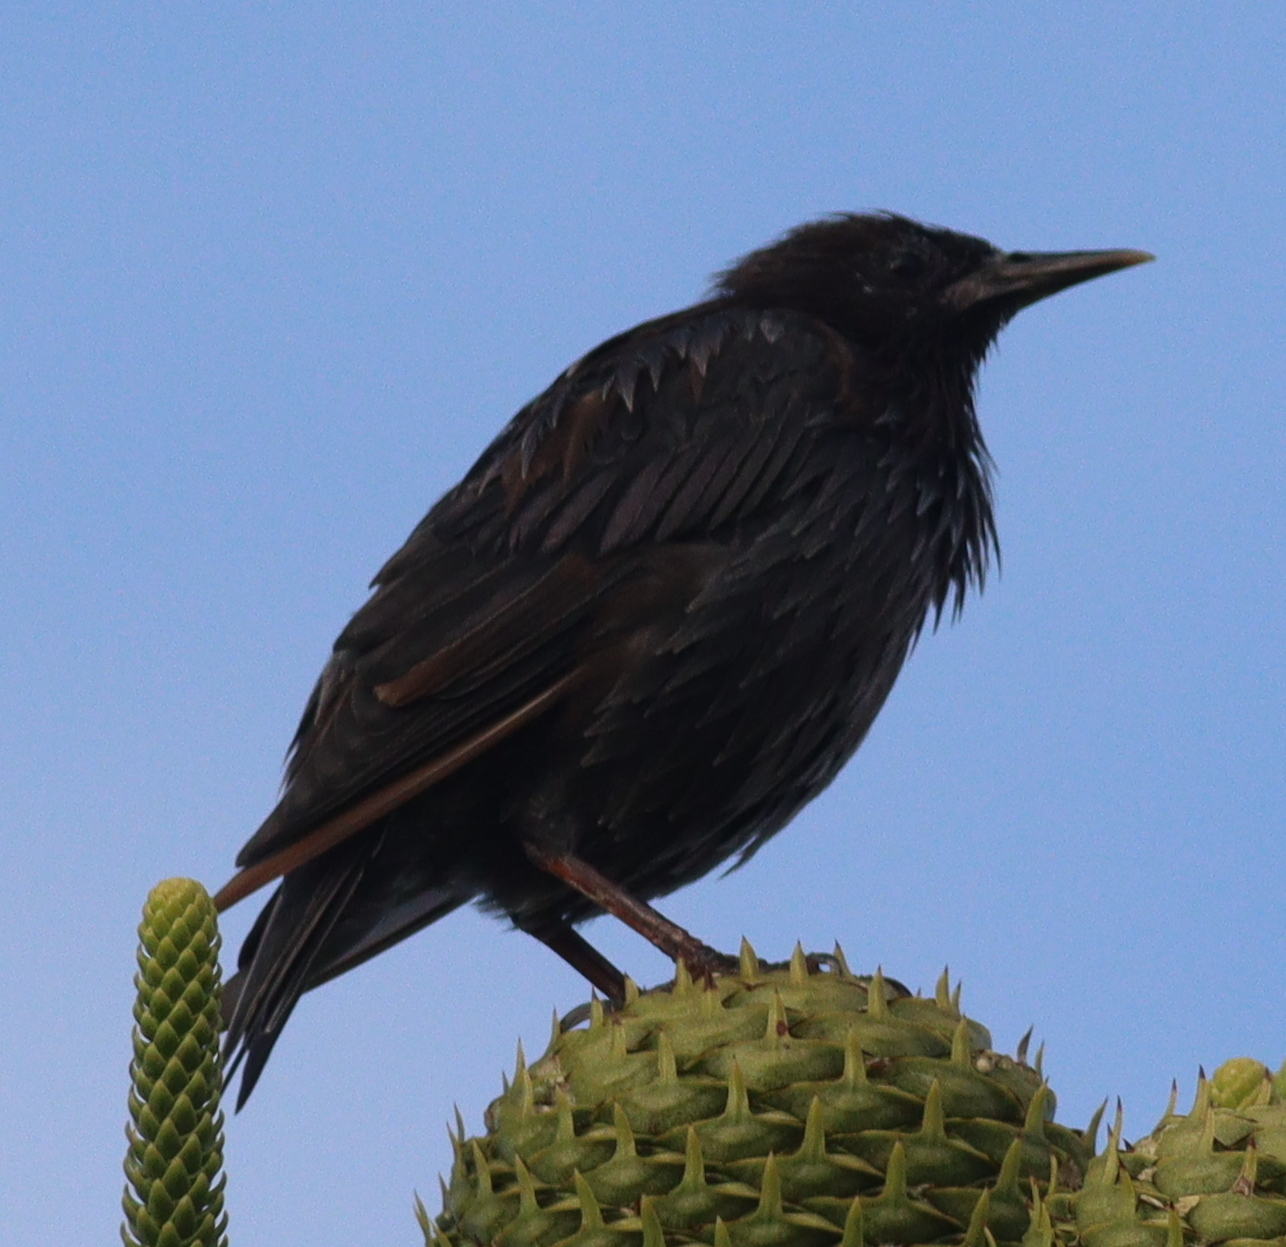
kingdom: Animalia
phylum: Chordata
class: Aves
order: Passeriformes
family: Sturnidae
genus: Sturnus
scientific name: Sturnus unicolor
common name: Spotless starling
